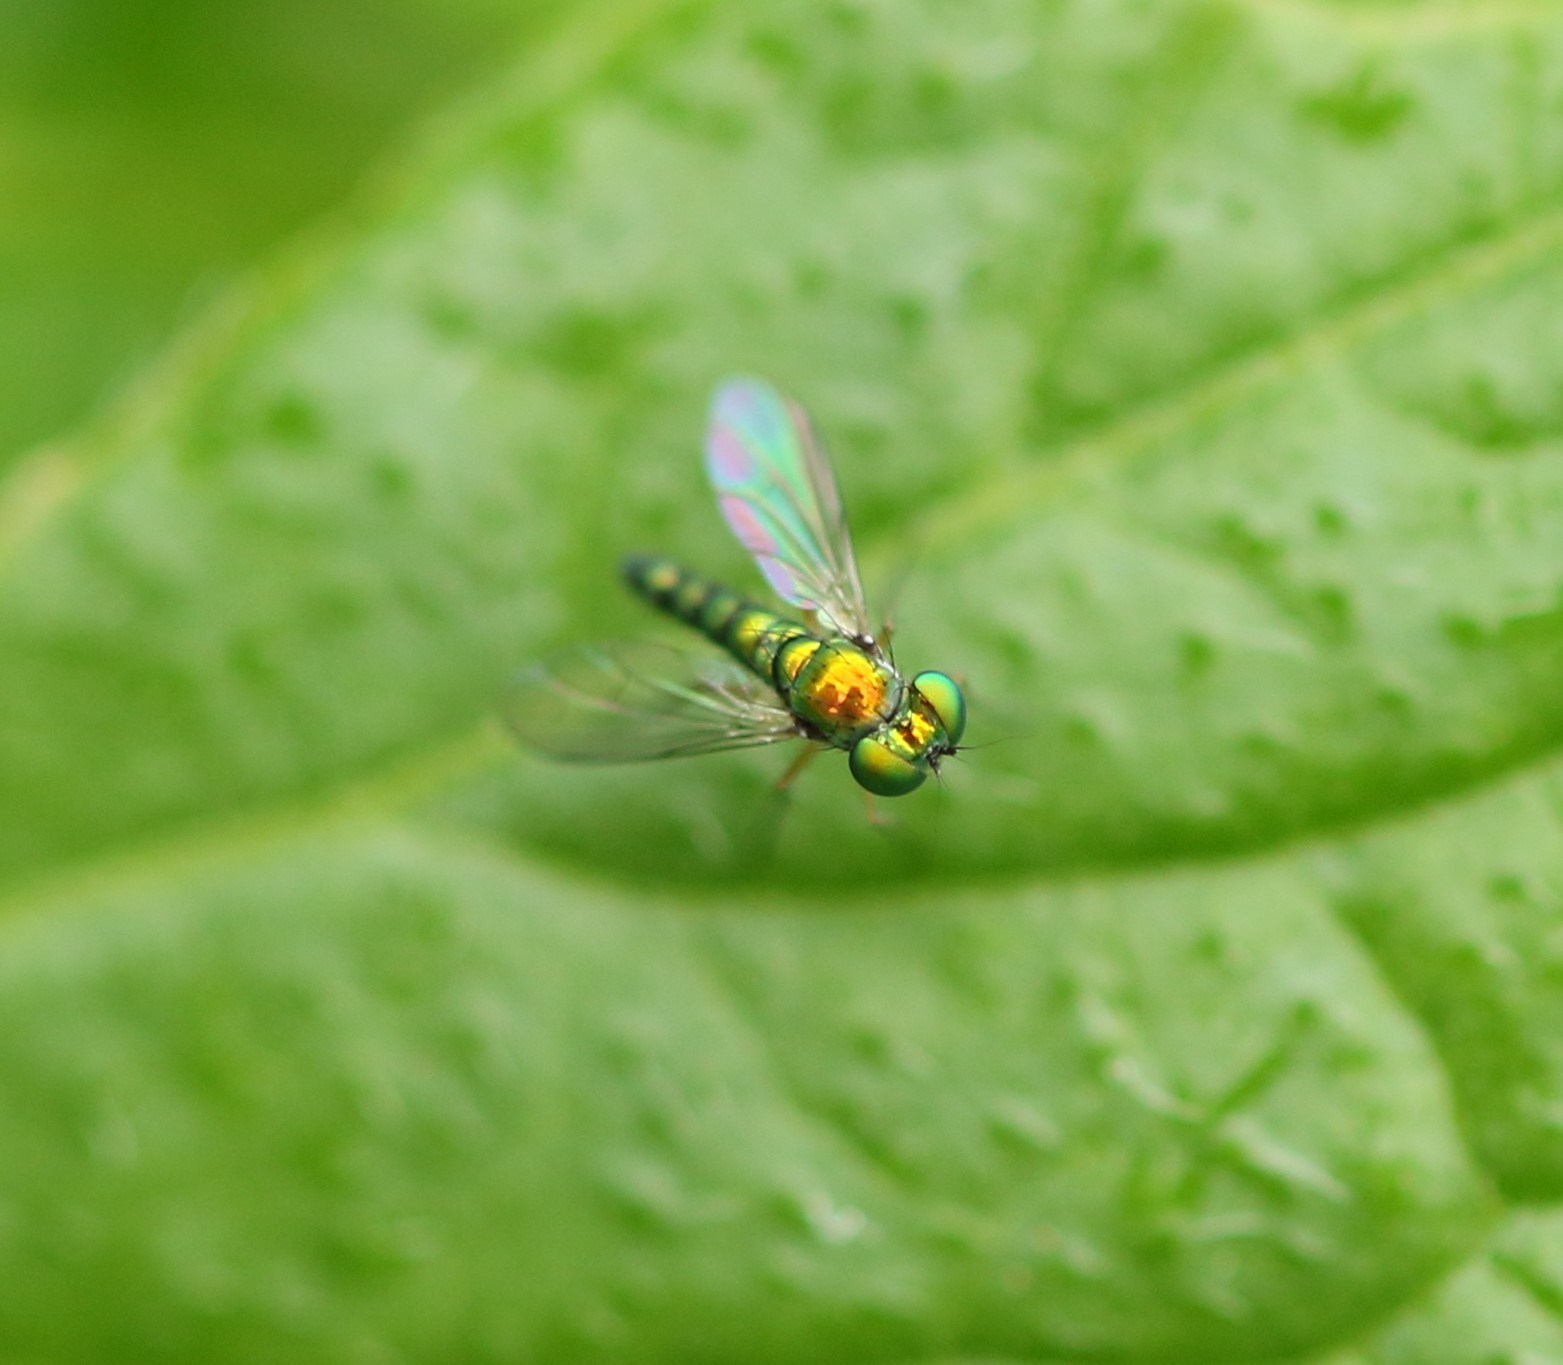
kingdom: Animalia
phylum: Arthropoda
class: Insecta
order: Diptera
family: Dolichopodidae
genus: Condylostylus
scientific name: Condylostylus flavipes
